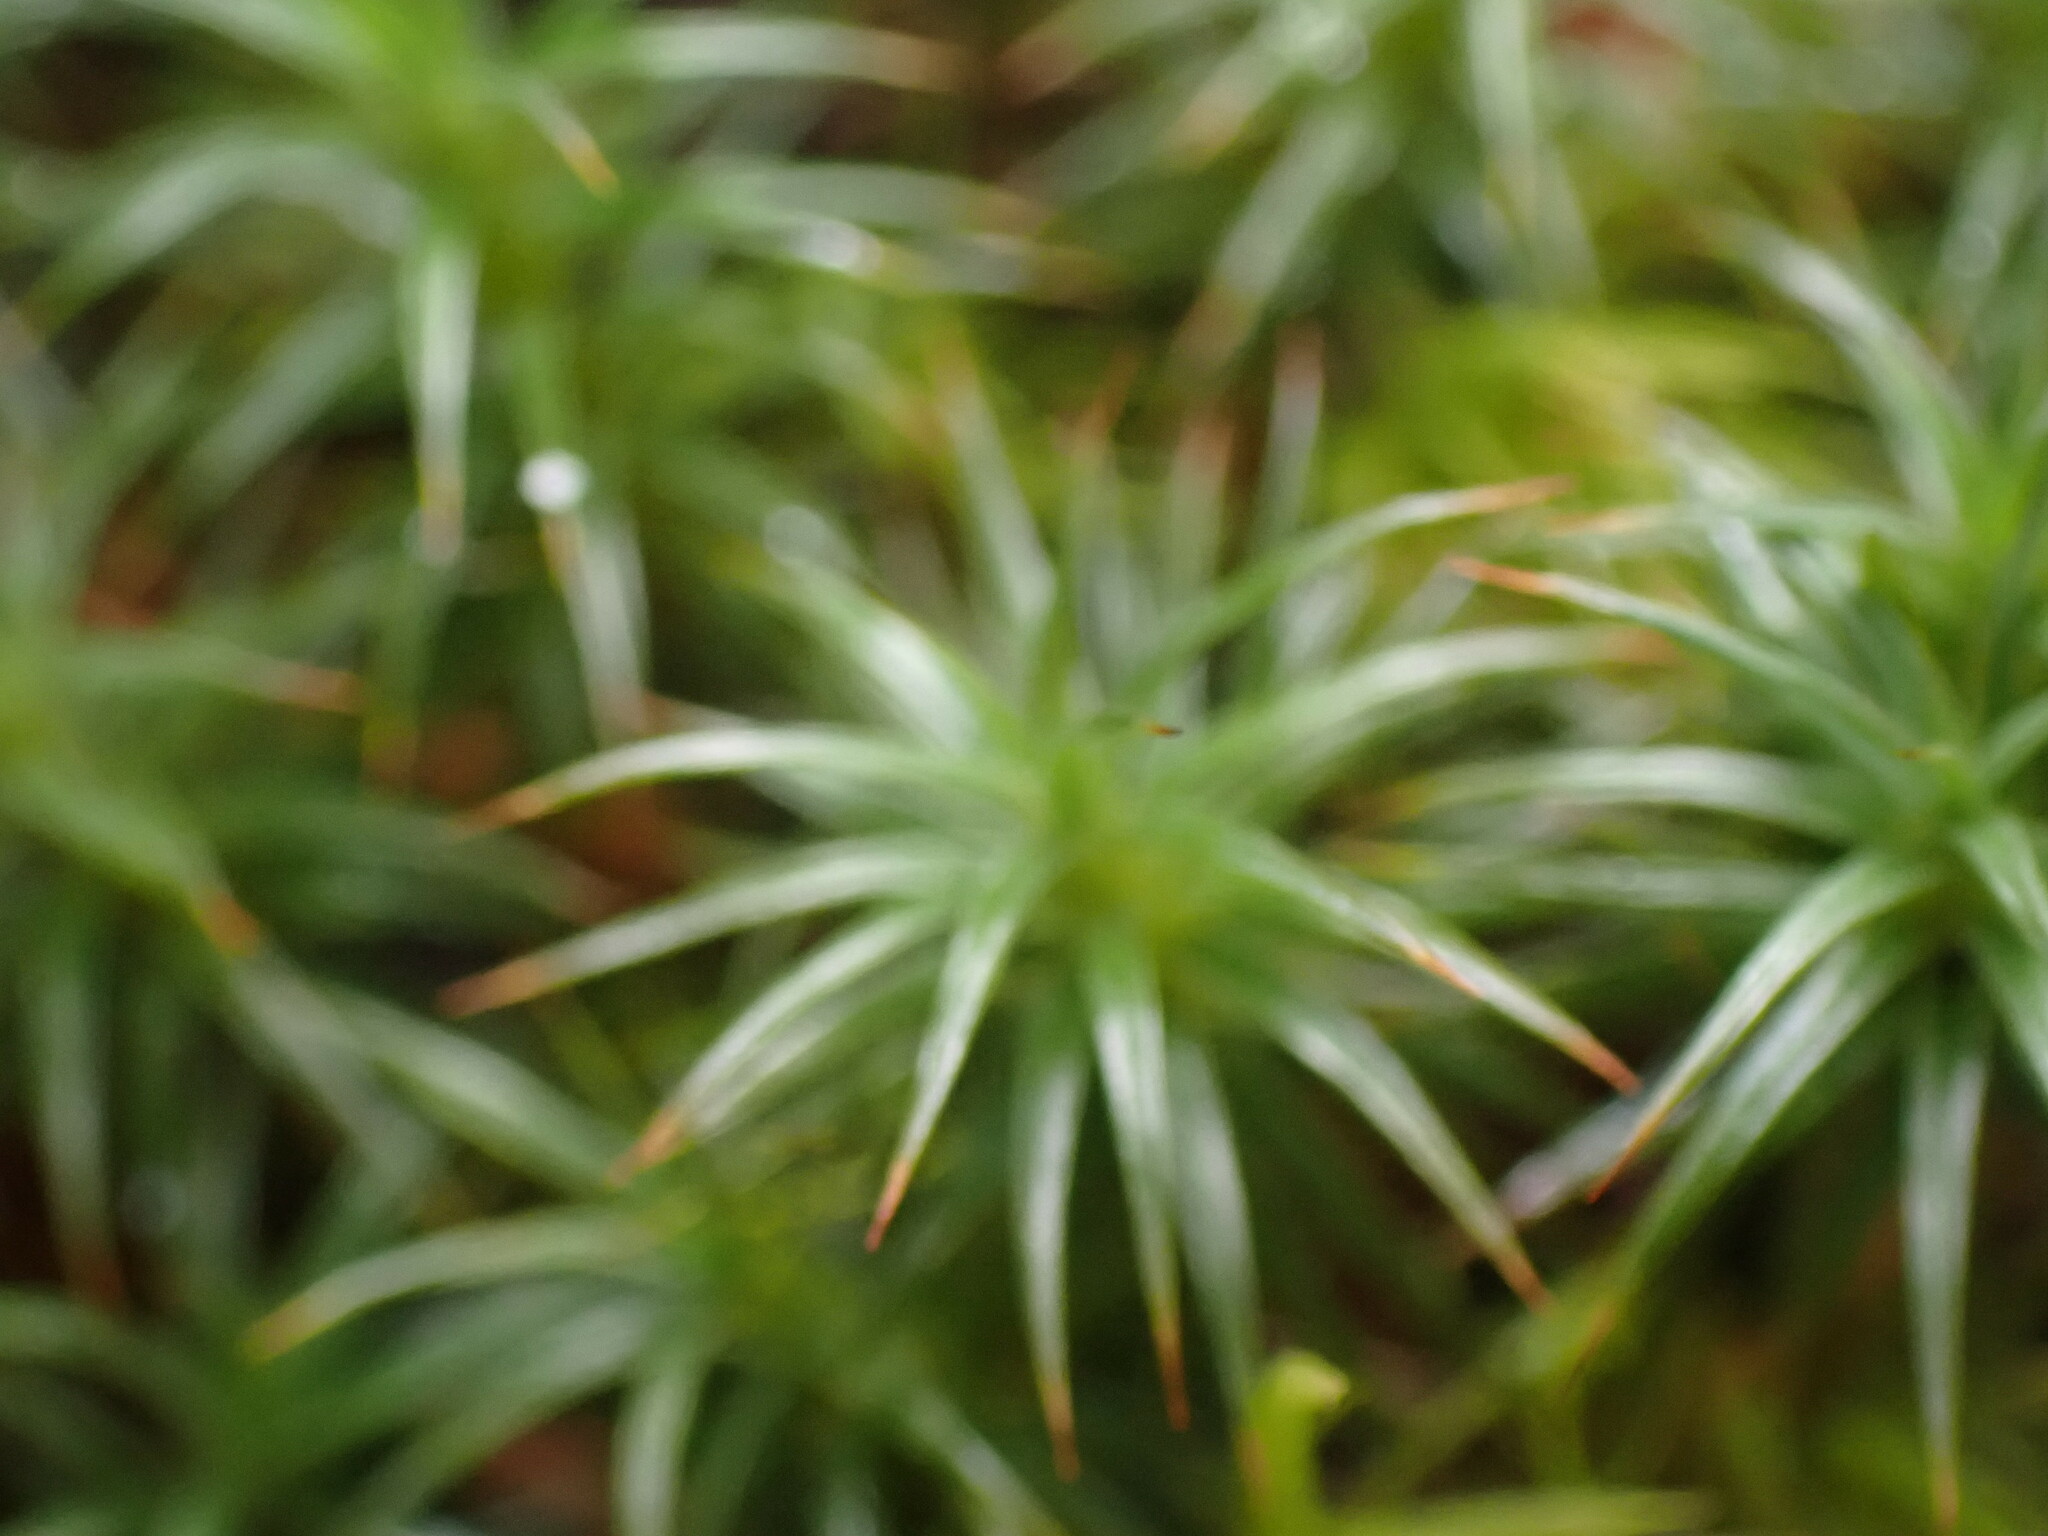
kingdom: Plantae
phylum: Bryophyta
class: Polytrichopsida
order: Polytrichales
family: Polytrichaceae
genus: Polytrichum
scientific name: Polytrichum juniperinum
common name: Juniper haircap moss
